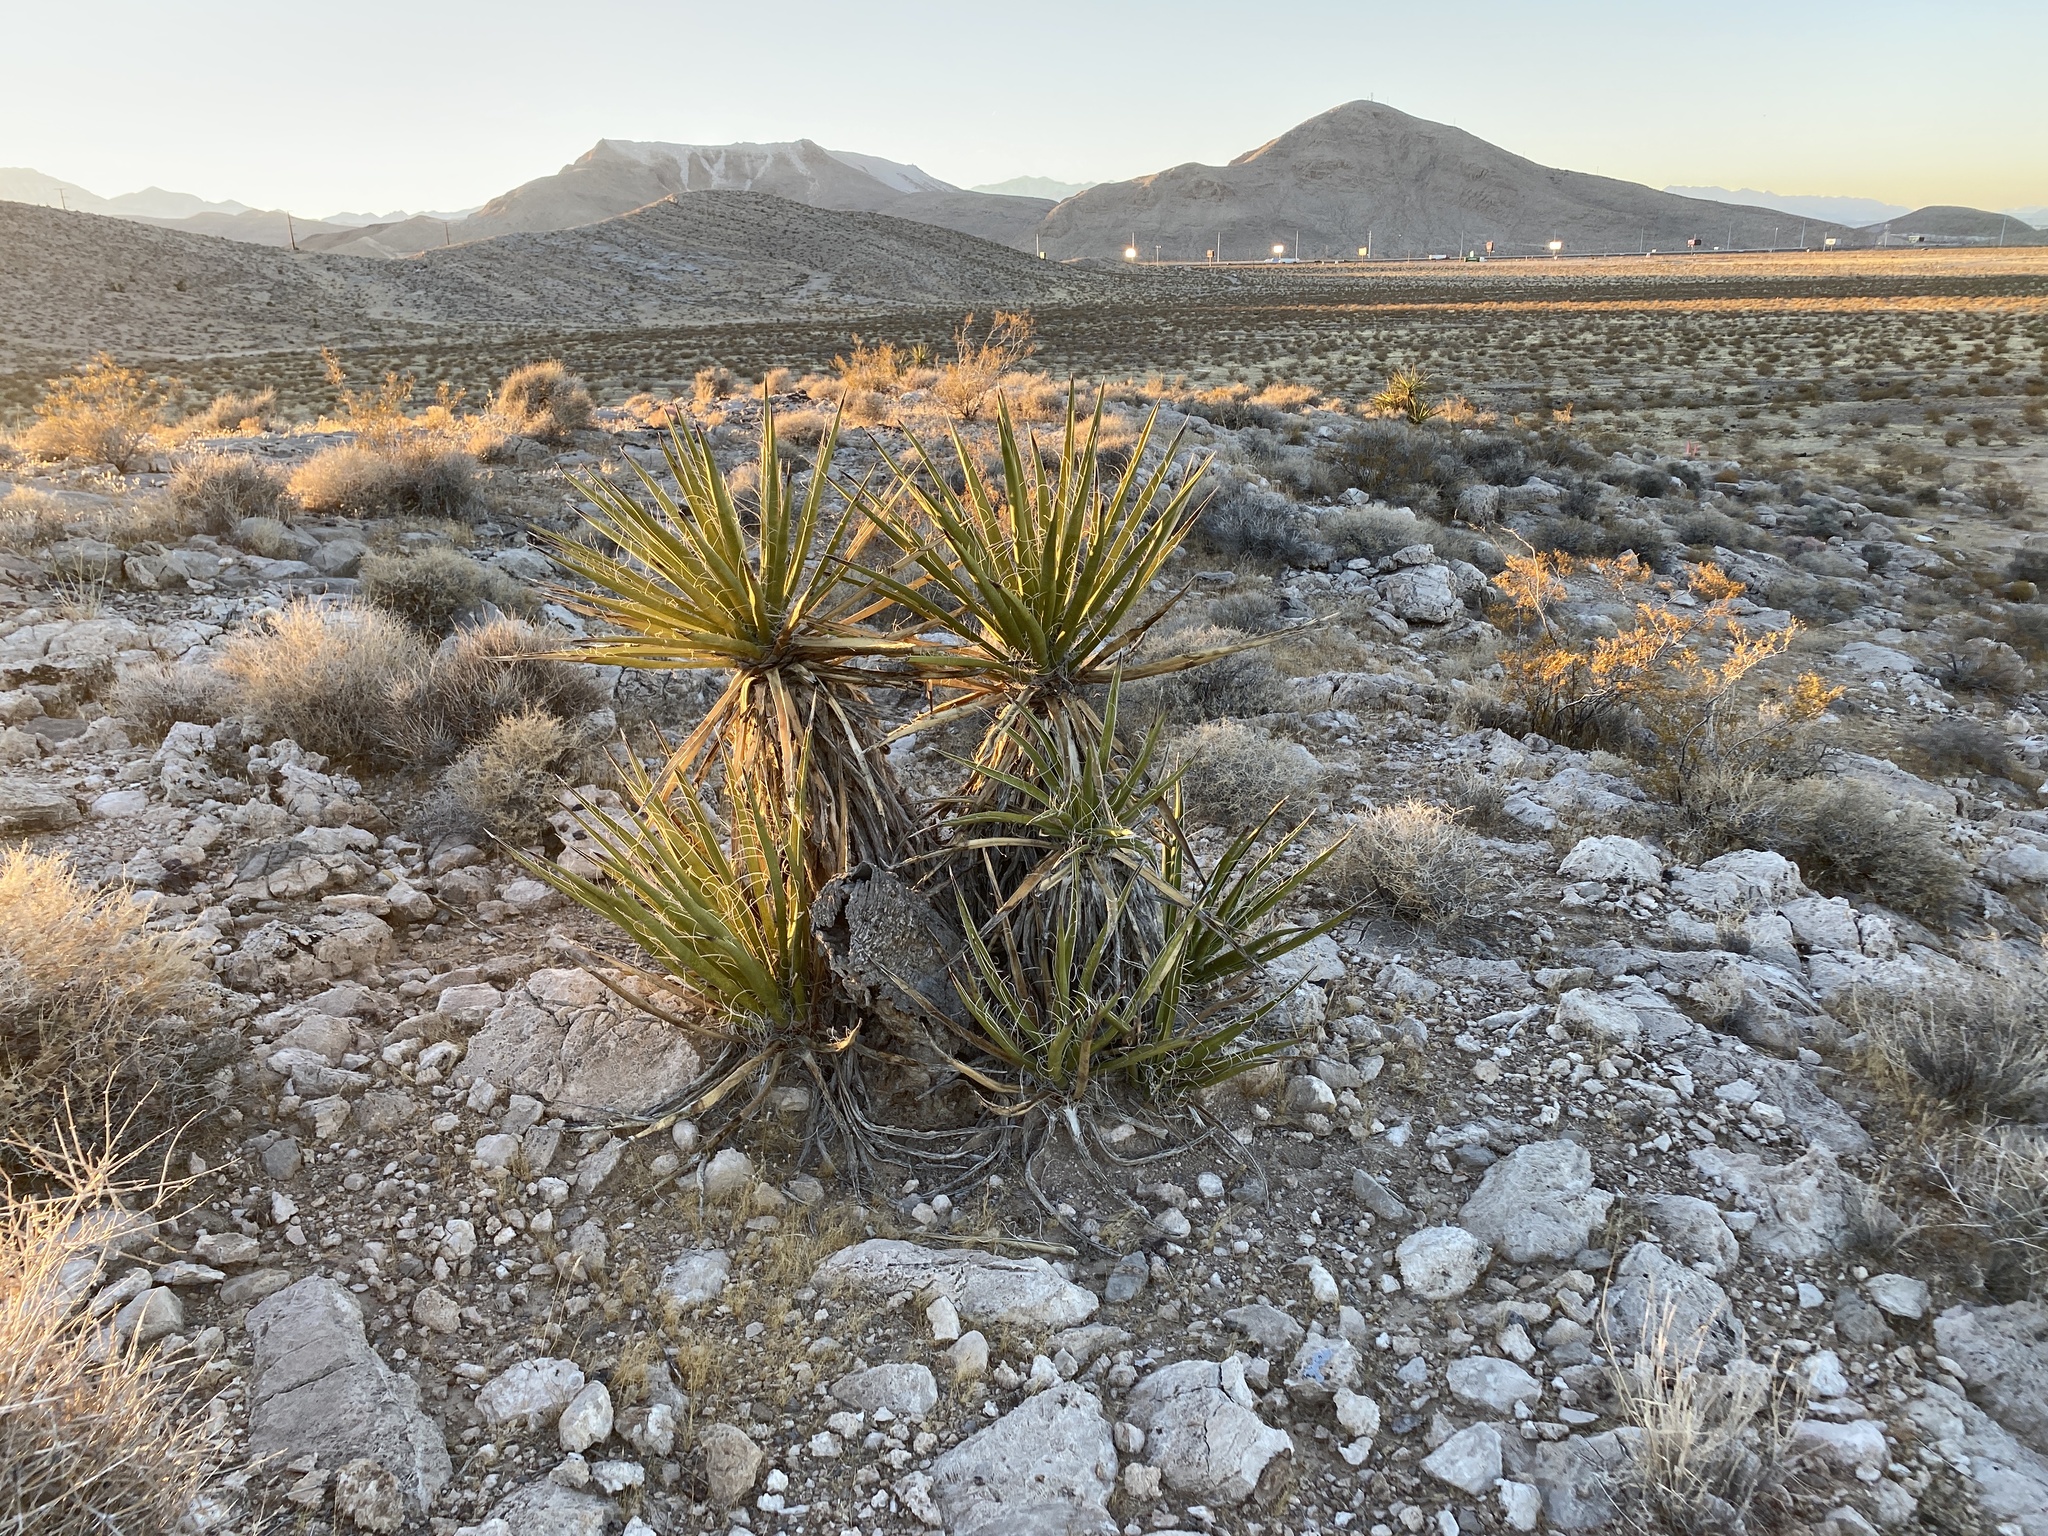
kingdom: Plantae
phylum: Tracheophyta
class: Liliopsida
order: Asparagales
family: Asparagaceae
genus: Yucca
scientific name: Yucca schidigera
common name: Mojave yucca
